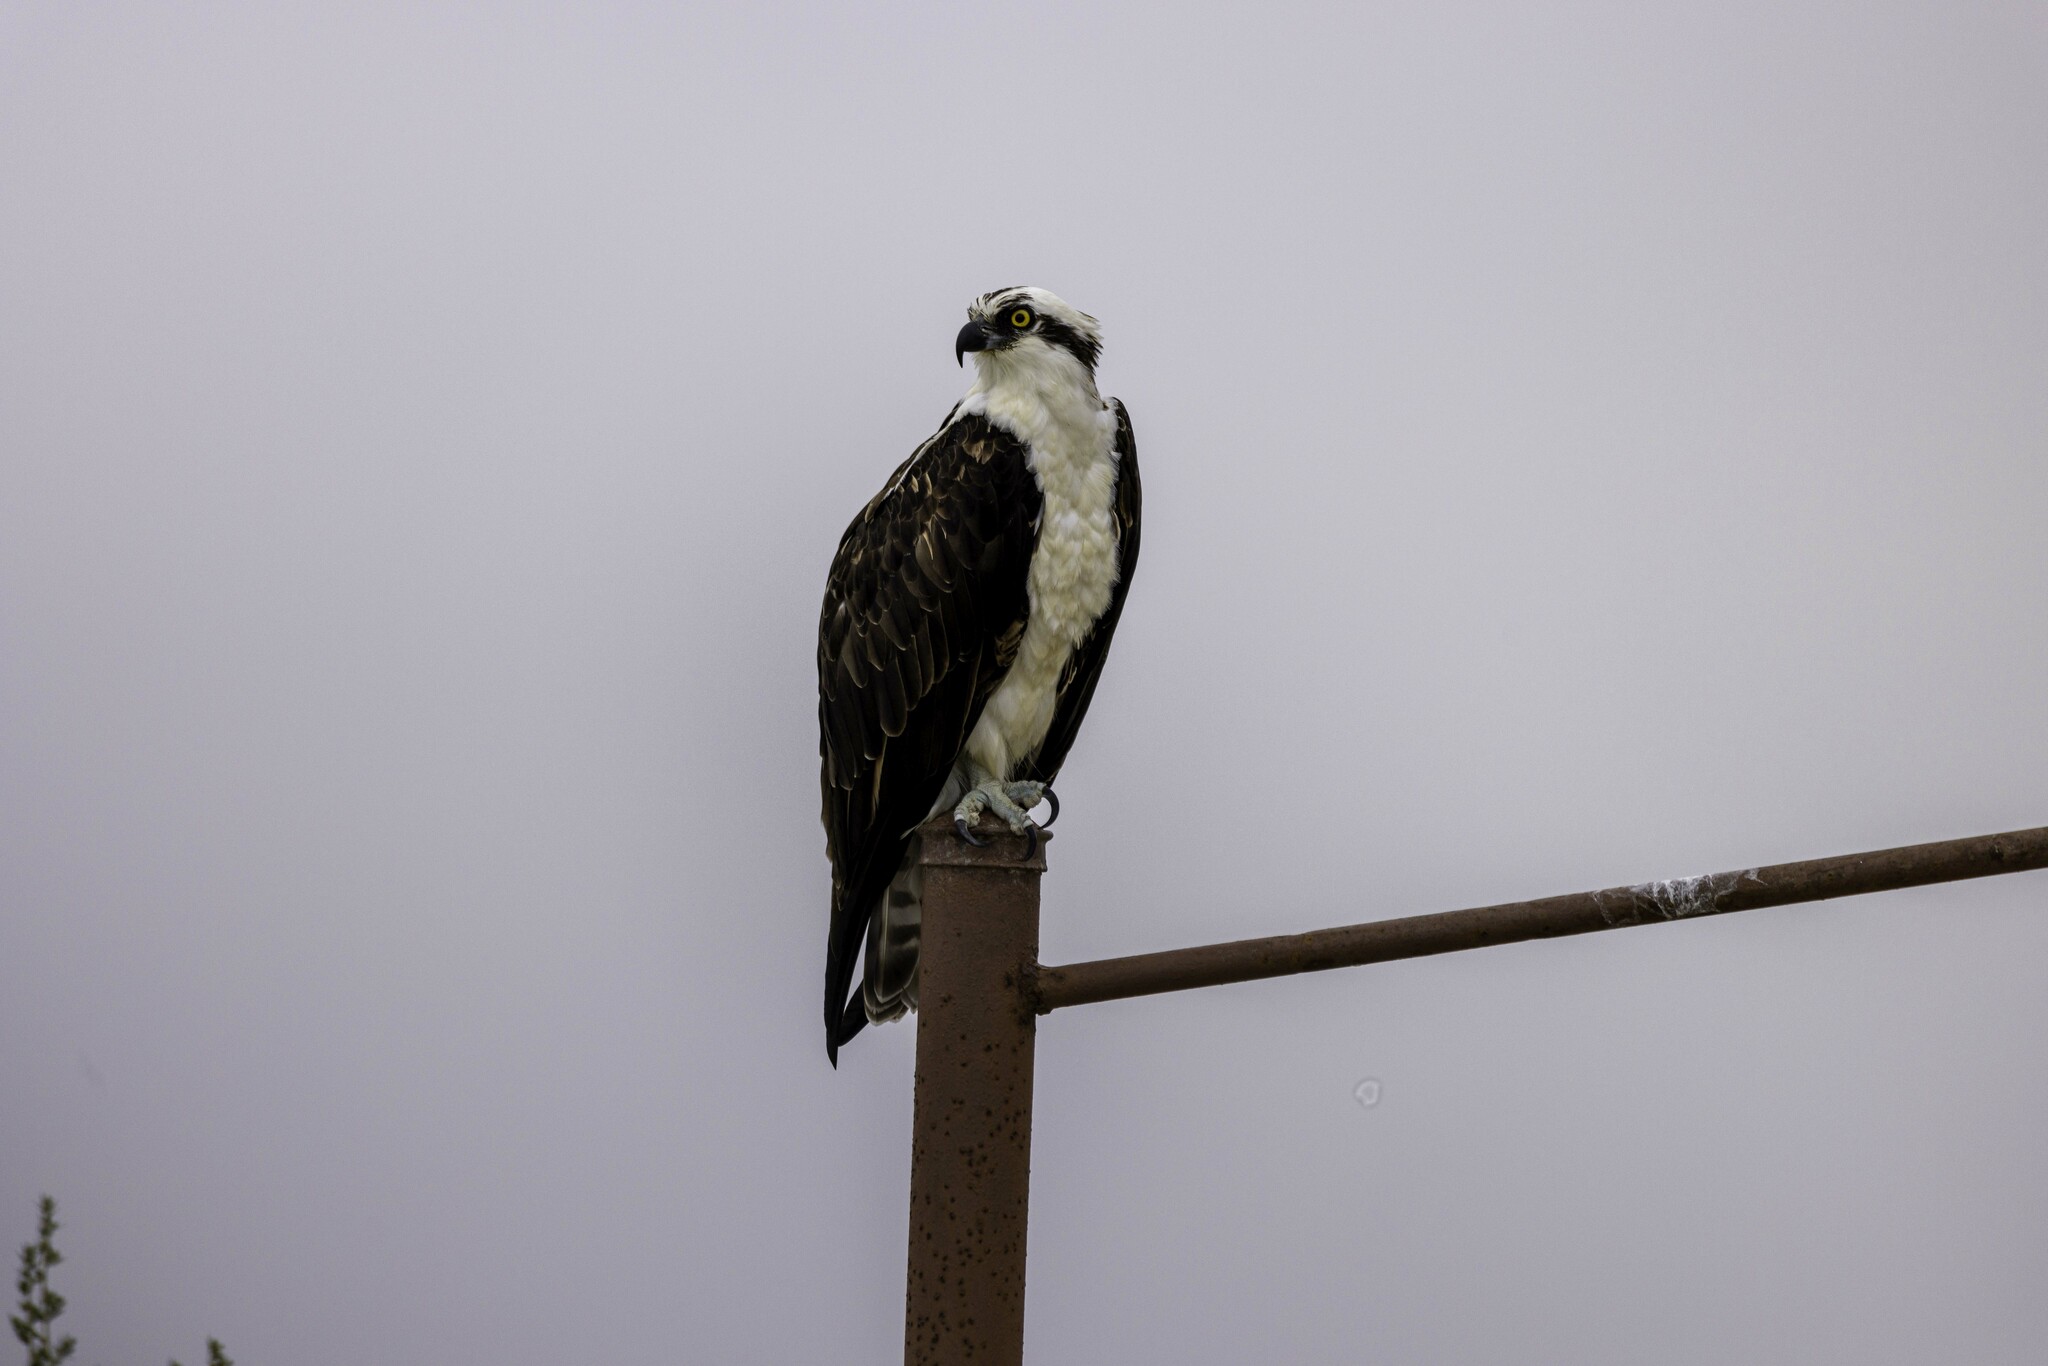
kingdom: Animalia
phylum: Chordata
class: Aves
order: Accipitriformes
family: Pandionidae
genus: Pandion
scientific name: Pandion haliaetus
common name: Osprey
